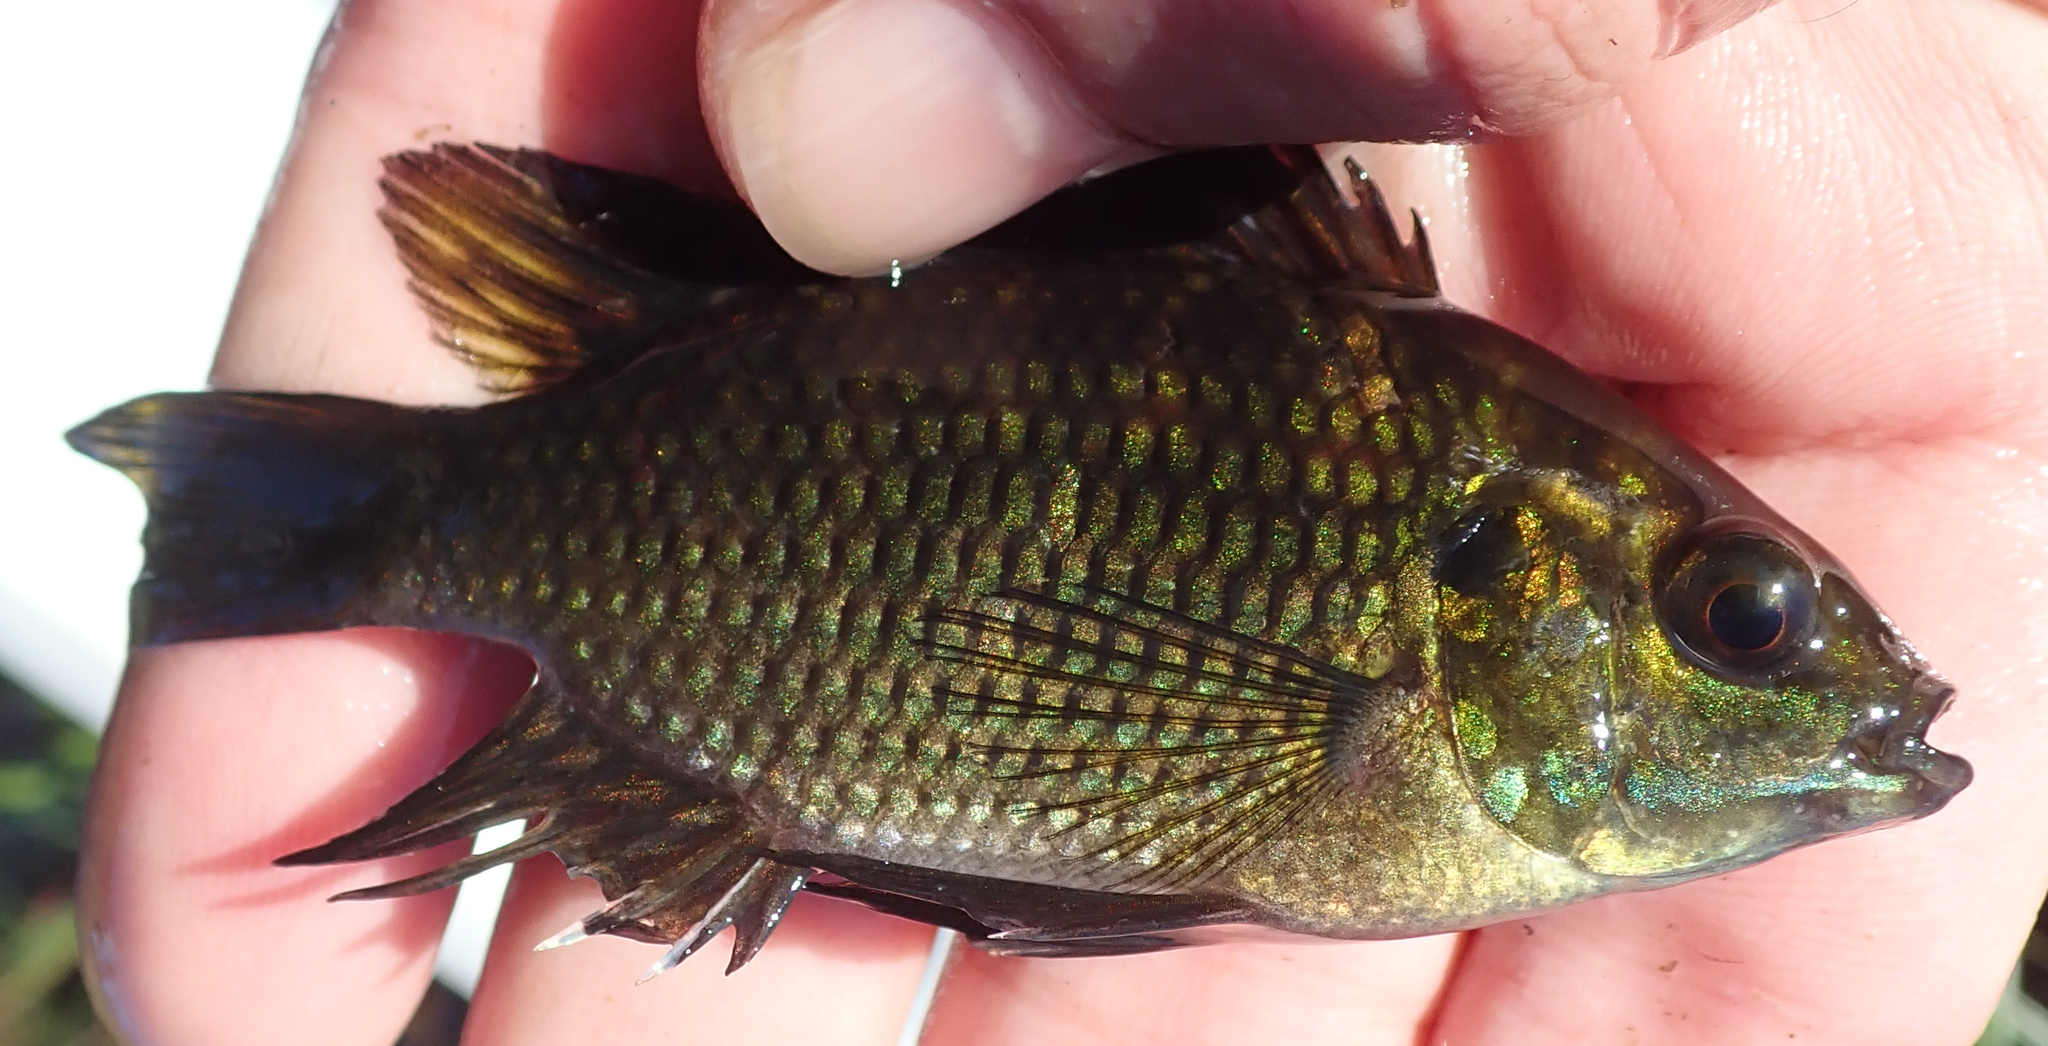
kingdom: Animalia
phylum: Chordata
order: Perciformes
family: Cichlidae
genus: Tilapia
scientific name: Tilapia sparrmanii
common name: Banded tilapia
